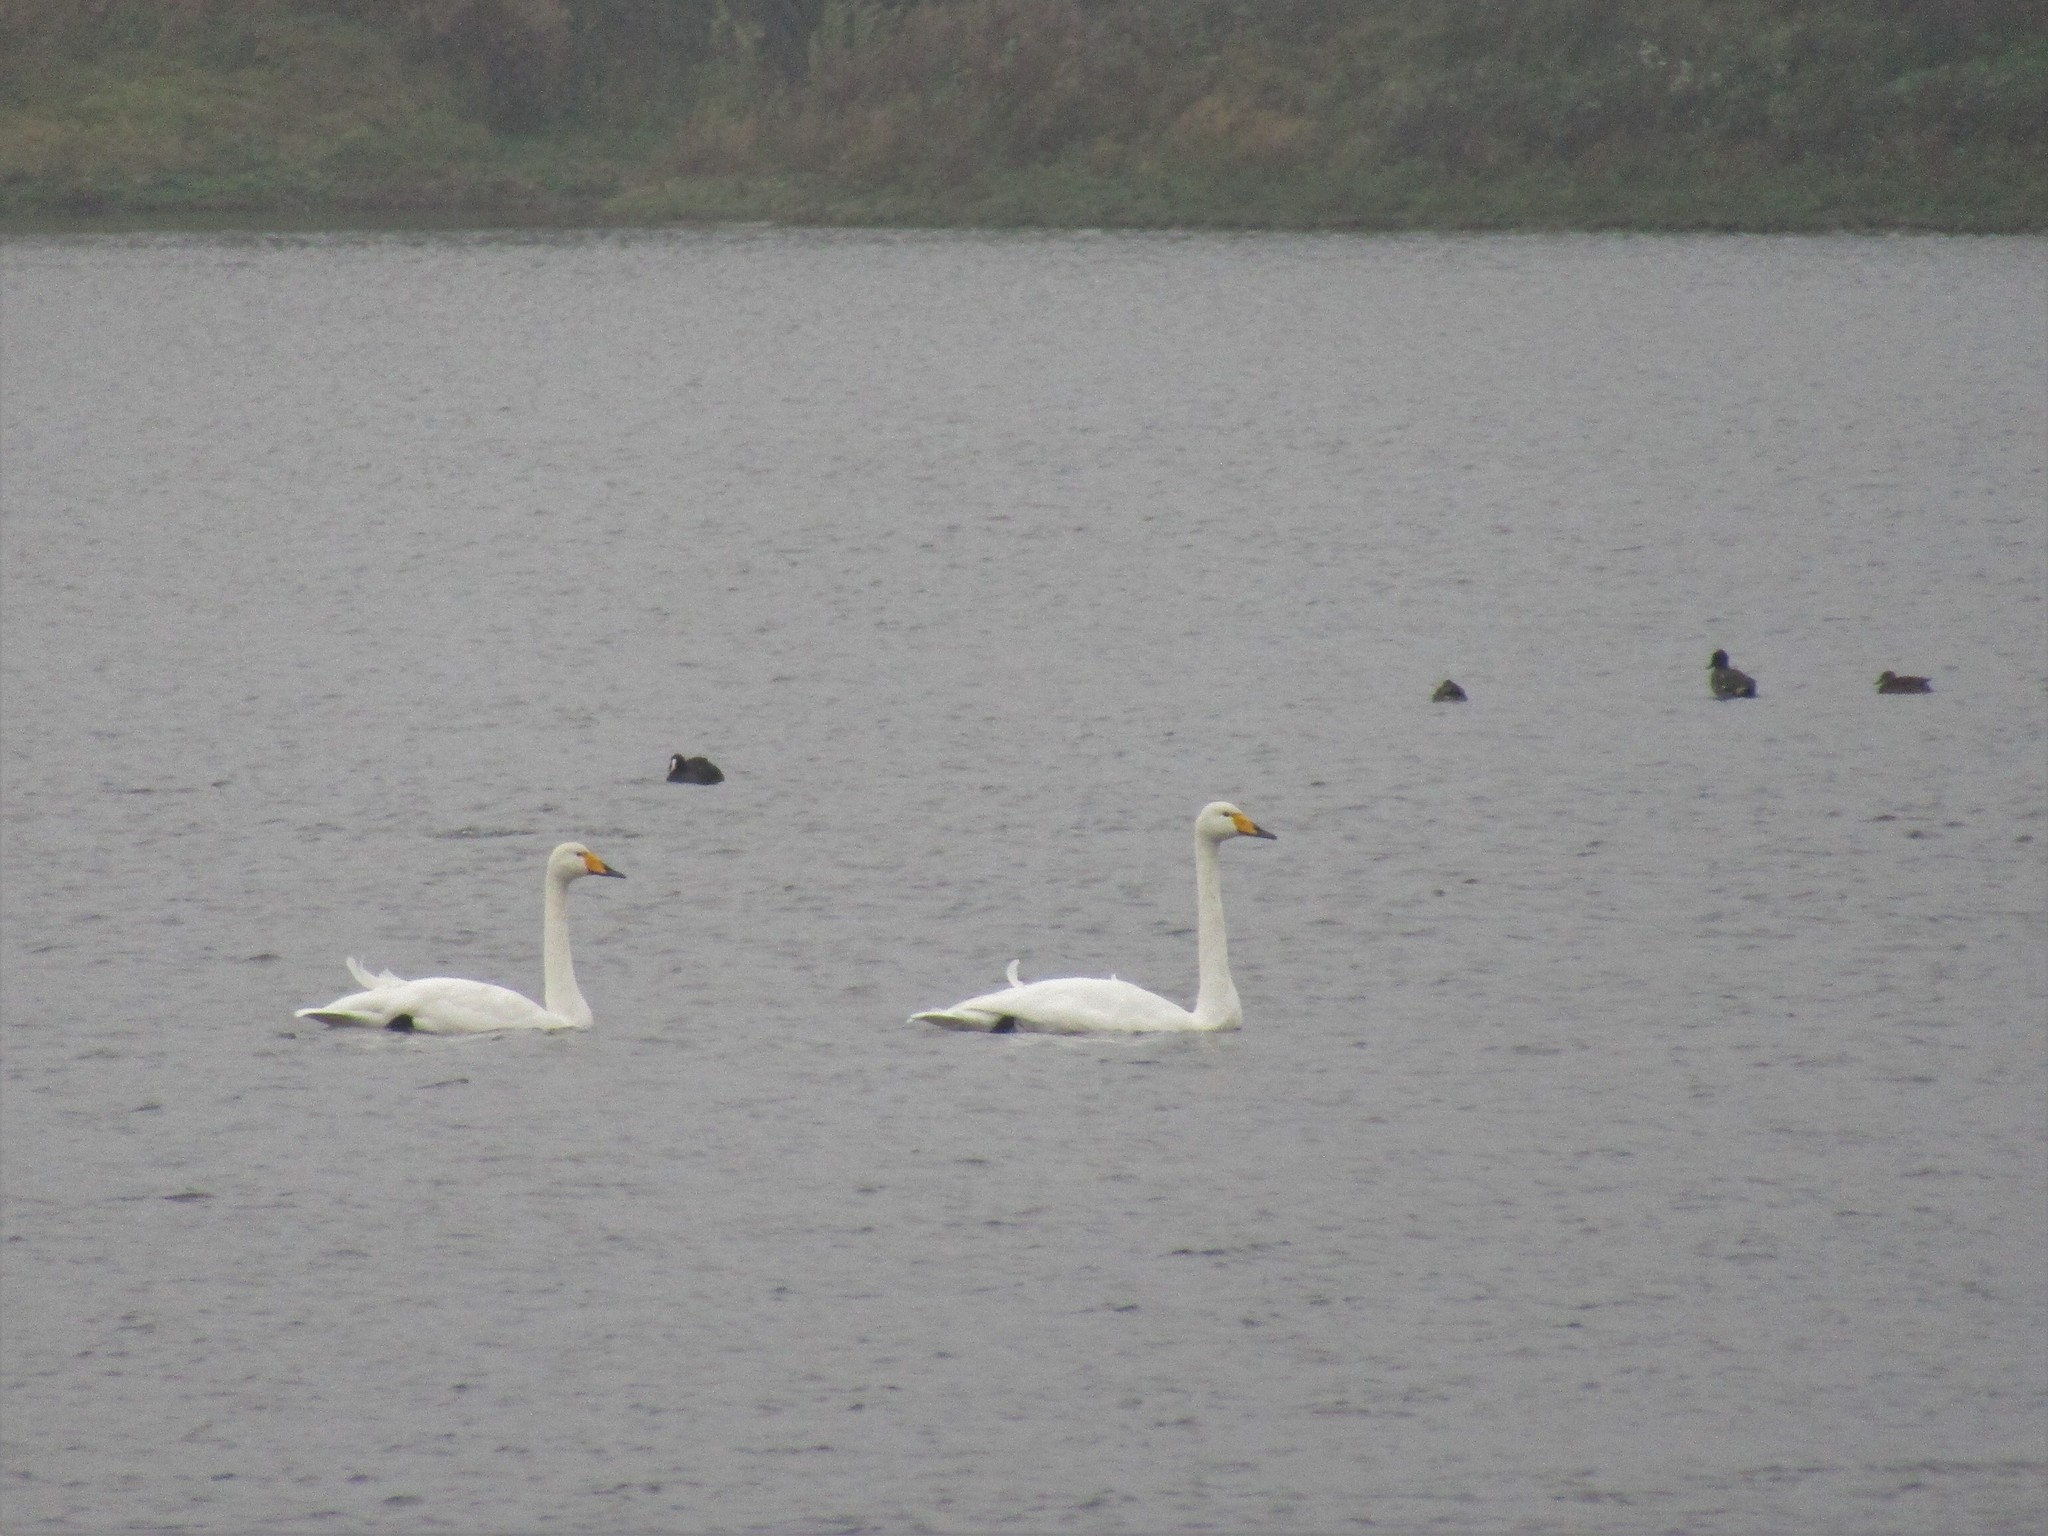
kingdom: Animalia
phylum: Chordata
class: Aves
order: Anseriformes
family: Anatidae
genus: Cygnus
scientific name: Cygnus cygnus
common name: Whooper swan
